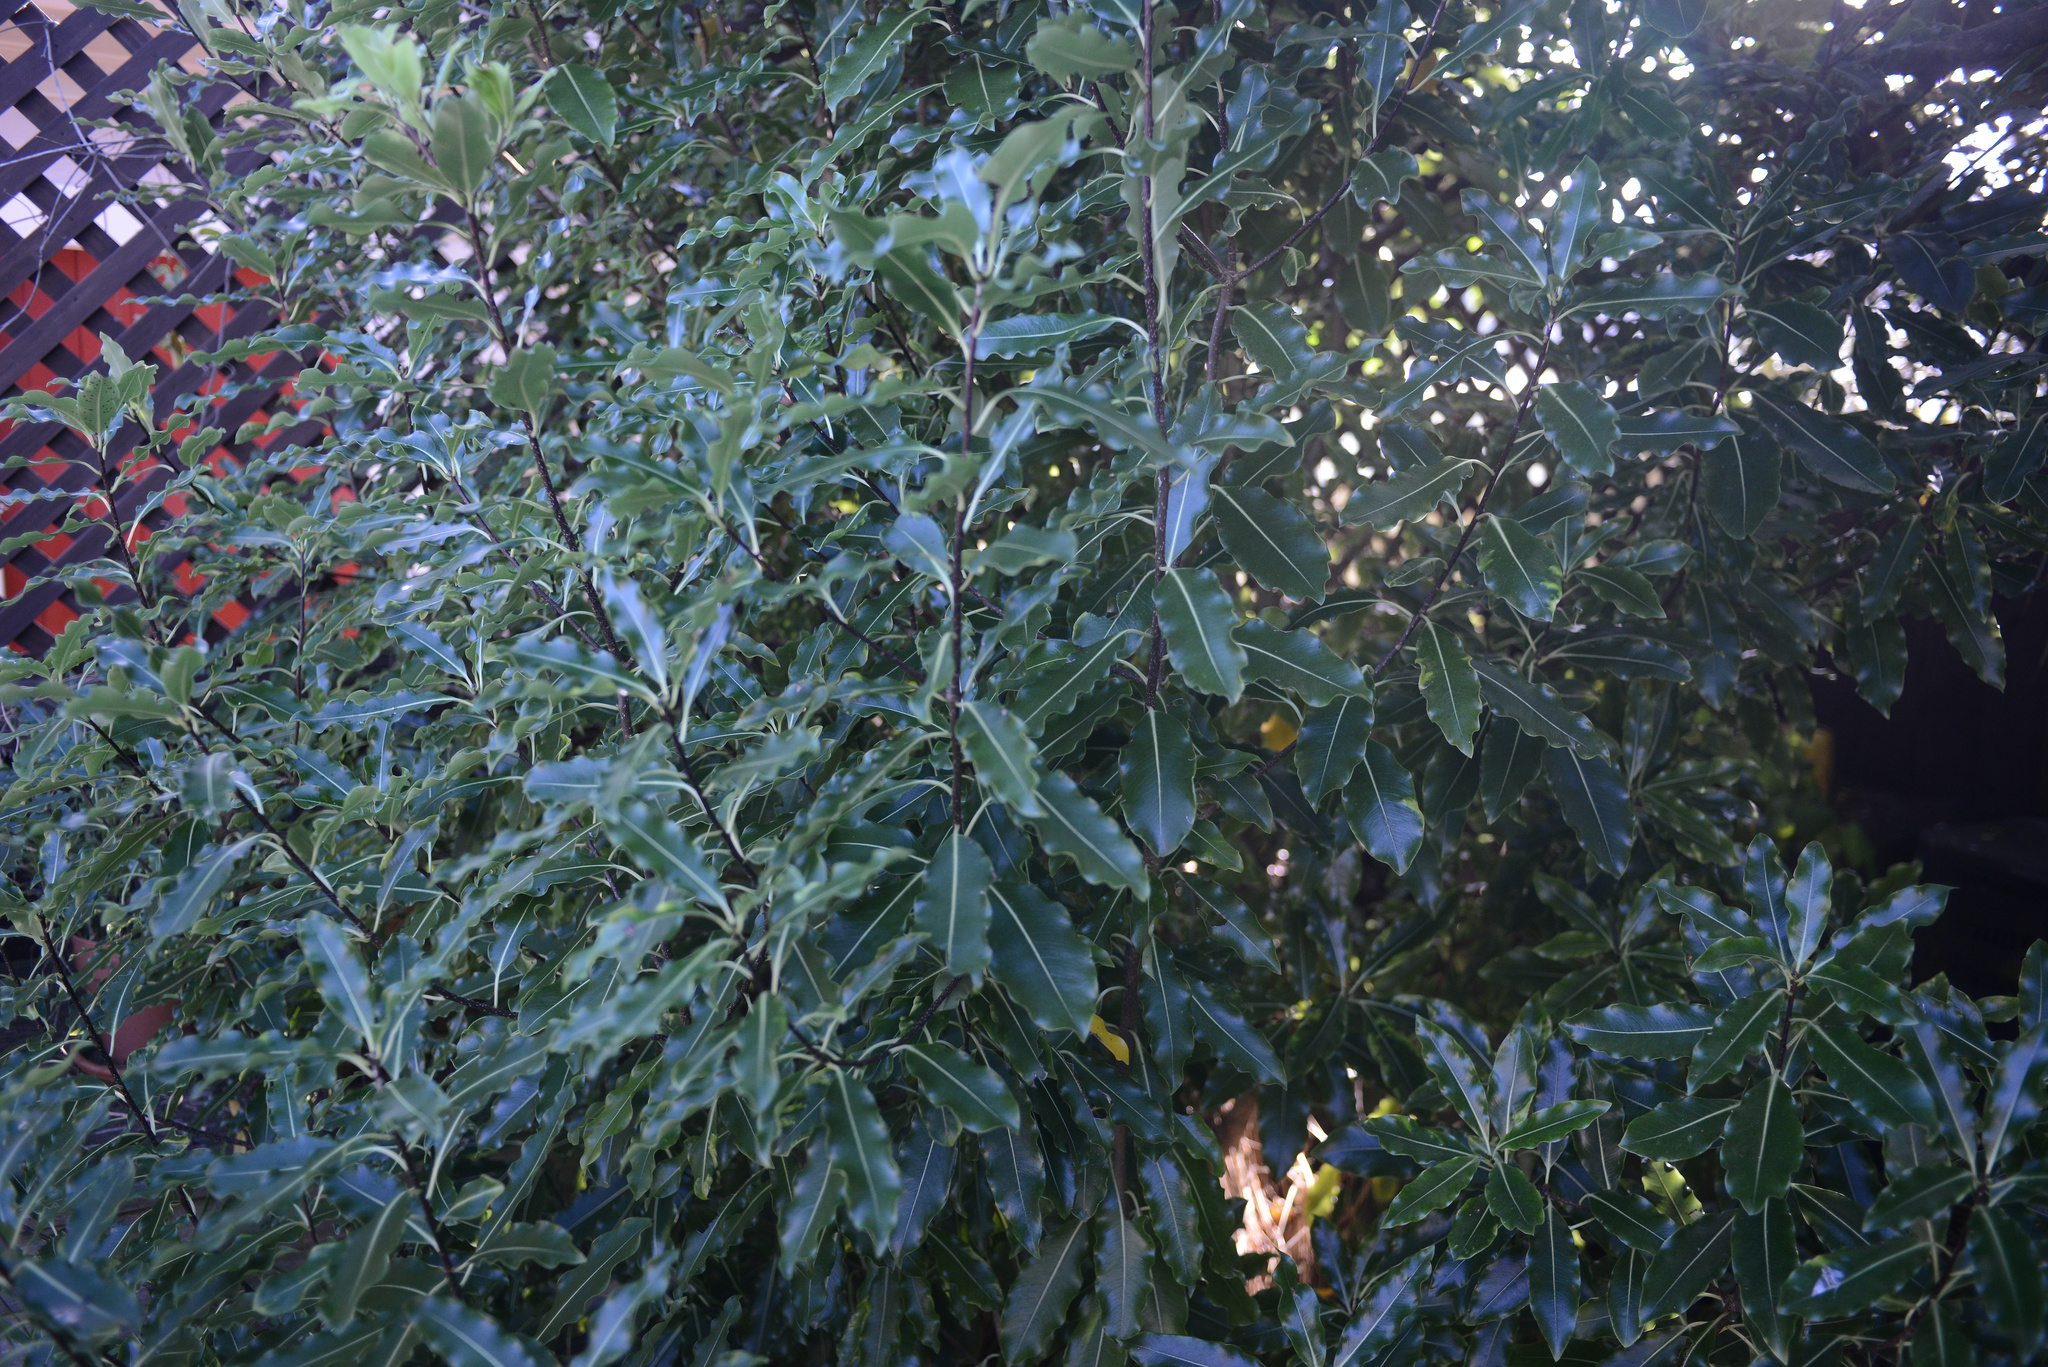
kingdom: Plantae
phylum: Tracheophyta
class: Magnoliopsida
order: Apiales
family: Pittosporaceae
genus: Pittosporum
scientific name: Pittosporum eugenioides
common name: Lemonwood
